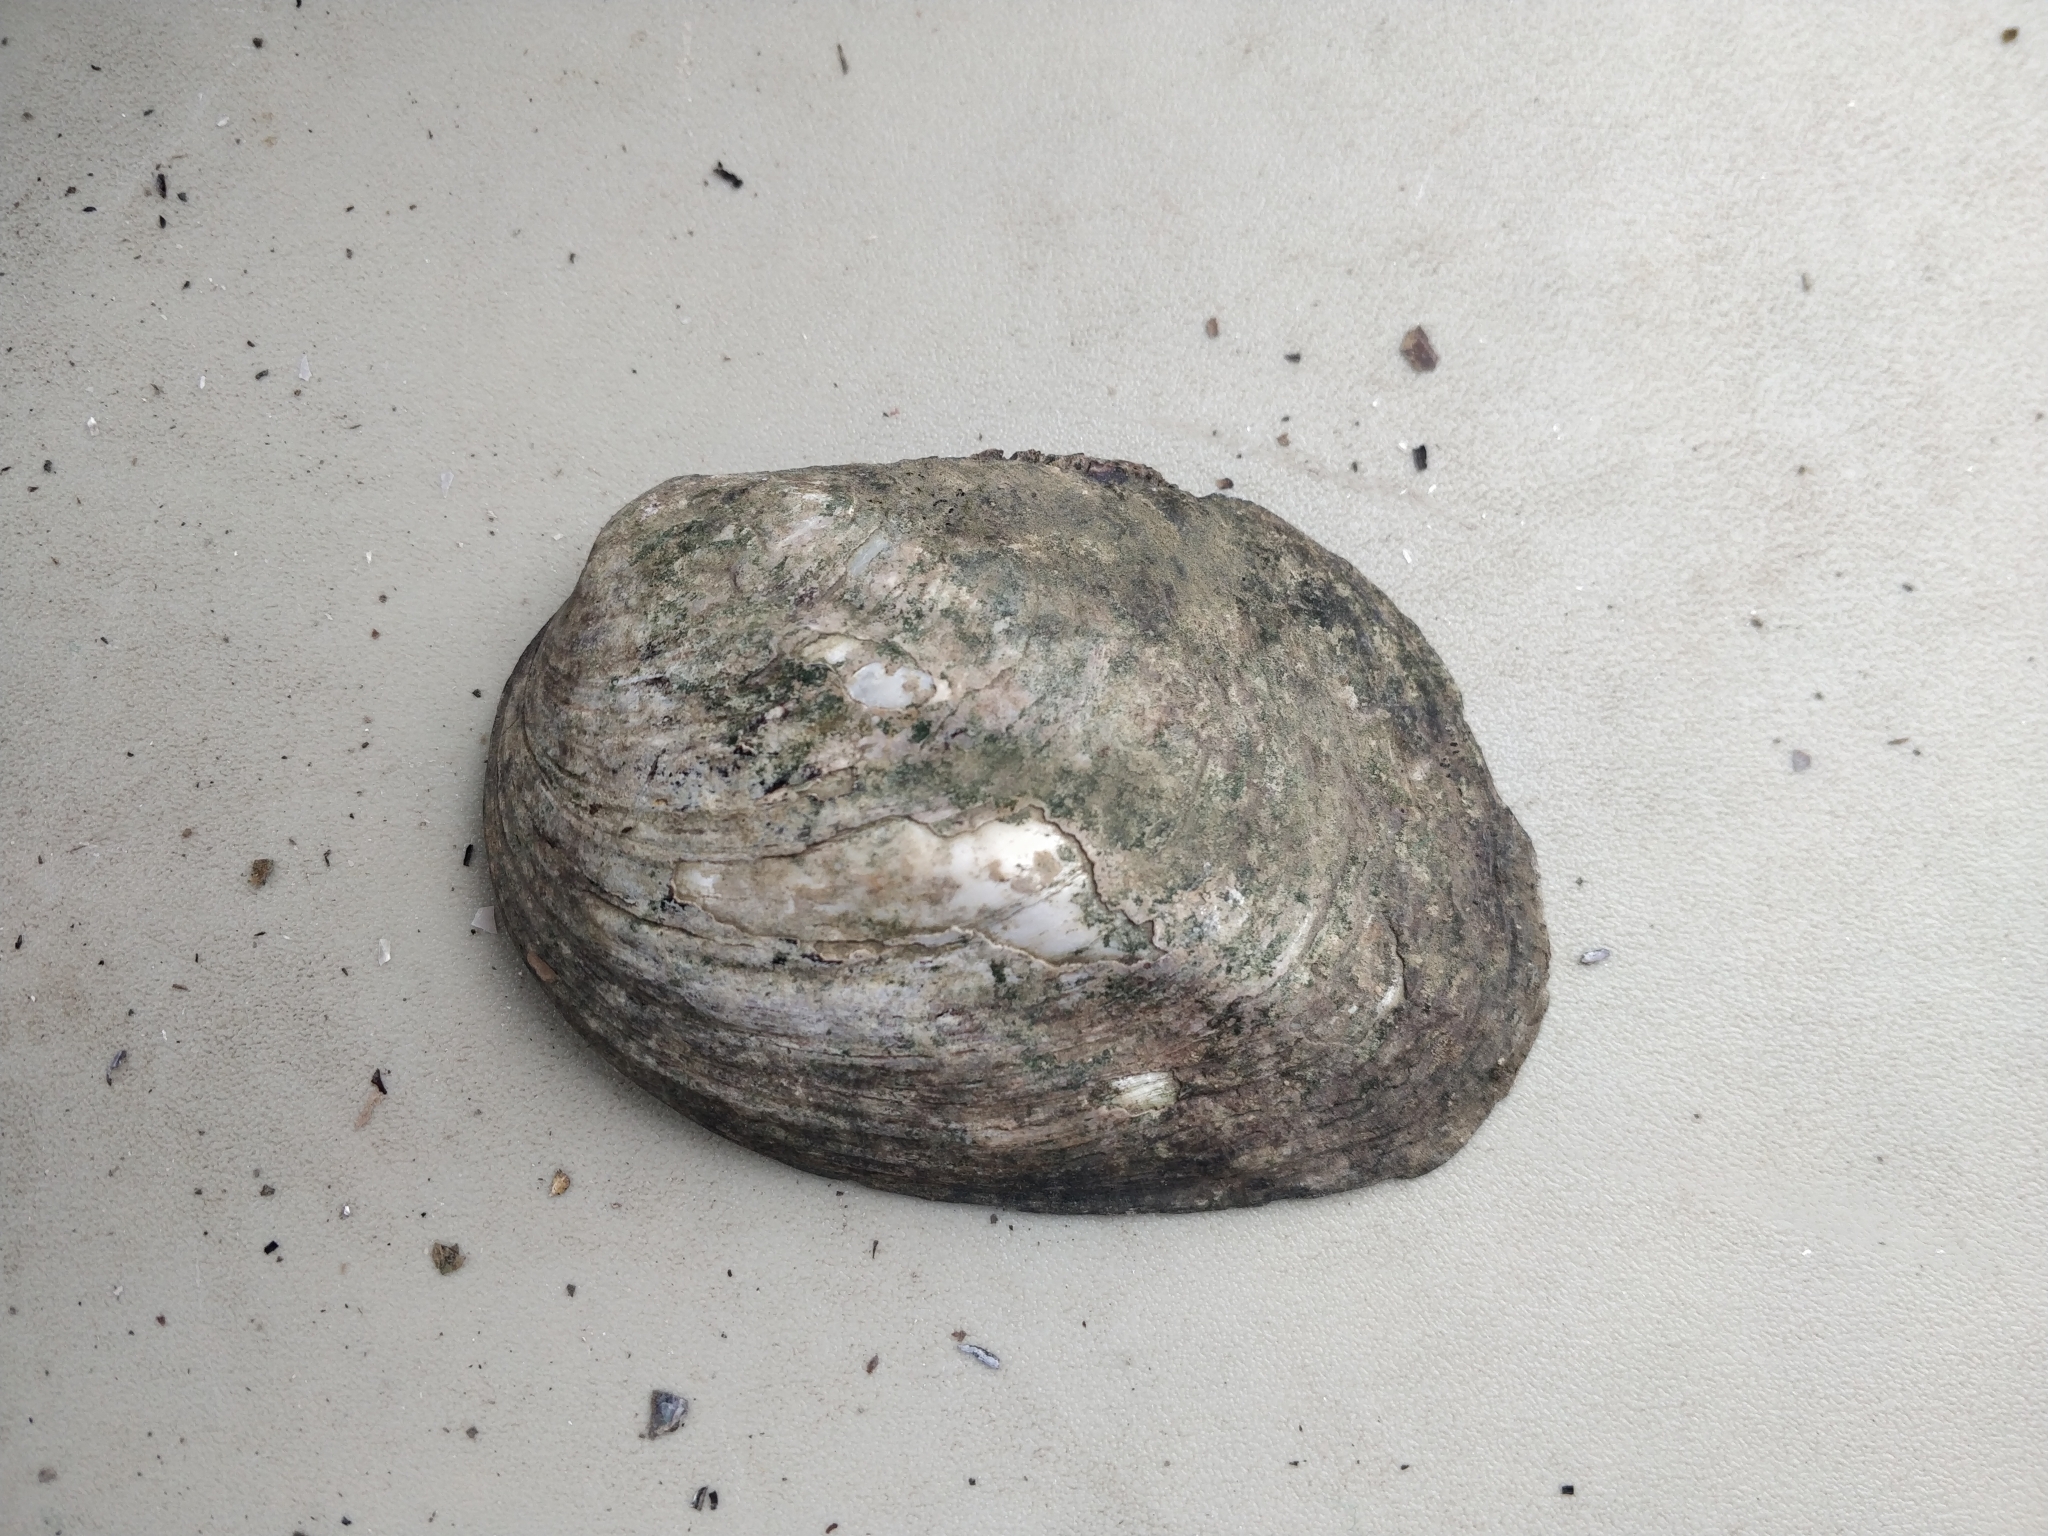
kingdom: Animalia
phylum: Mollusca
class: Bivalvia
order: Unionida
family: Unionidae
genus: Amblema
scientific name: Amblema plicata
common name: Threeridge
